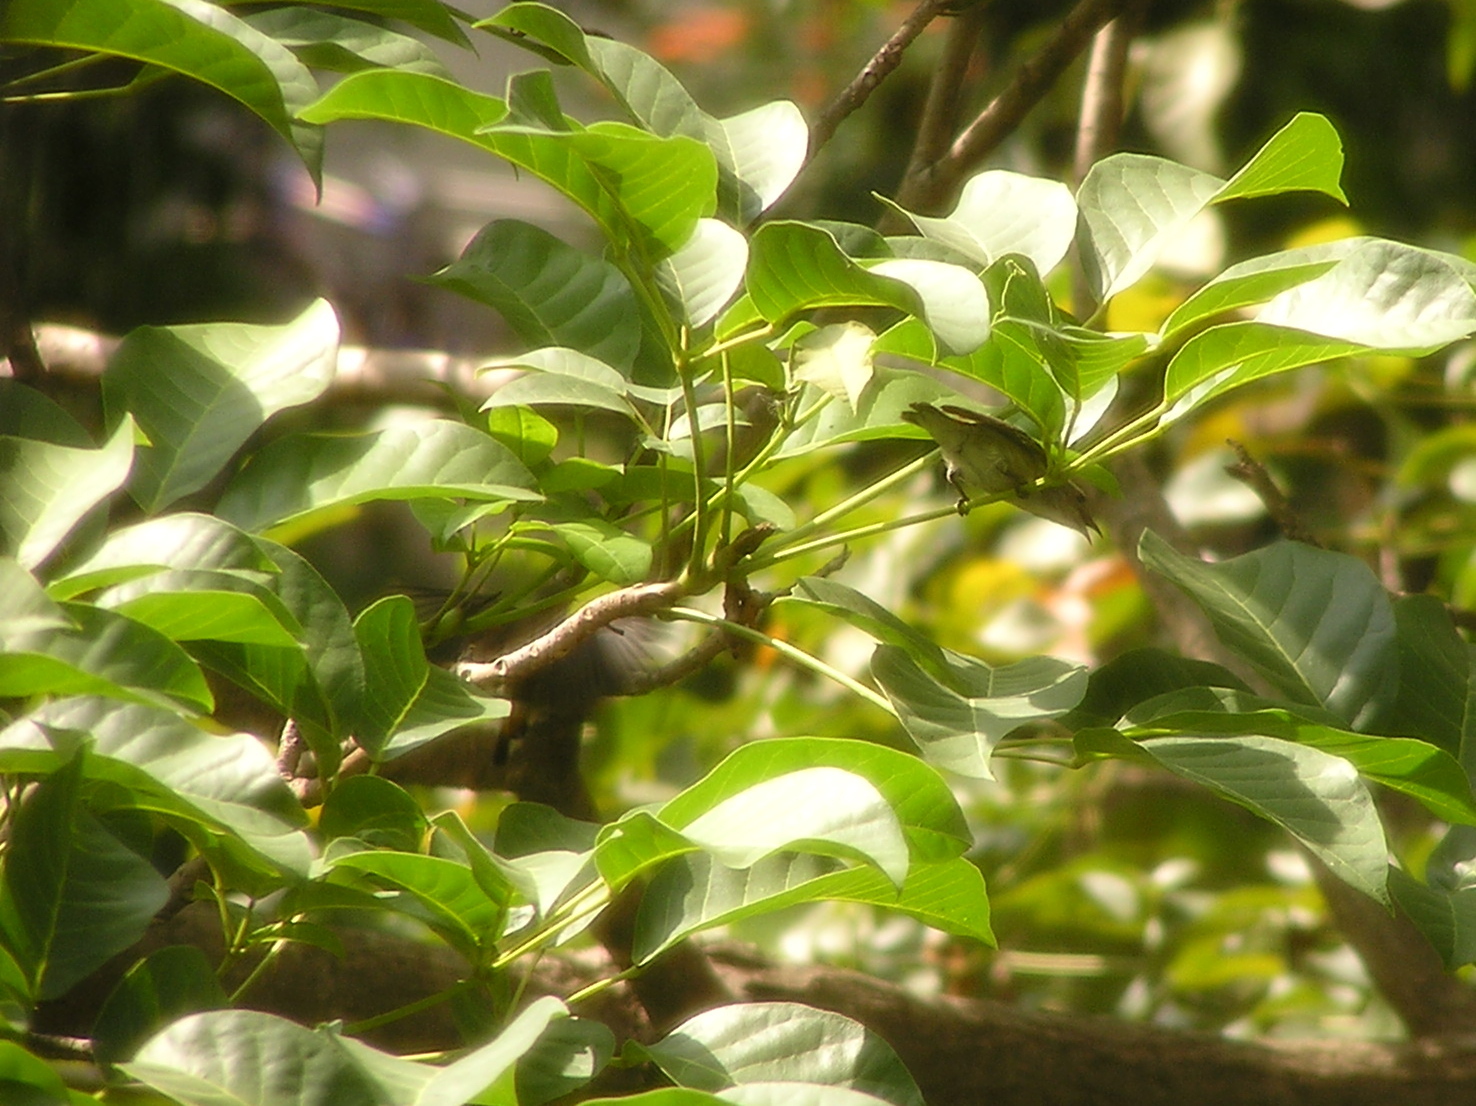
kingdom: Animalia
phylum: Chordata
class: Aves
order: Passeriformes
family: Dicaeidae
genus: Dicaeum
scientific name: Dicaeum cruentatum
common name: Scarlet-backed flowerpecker
